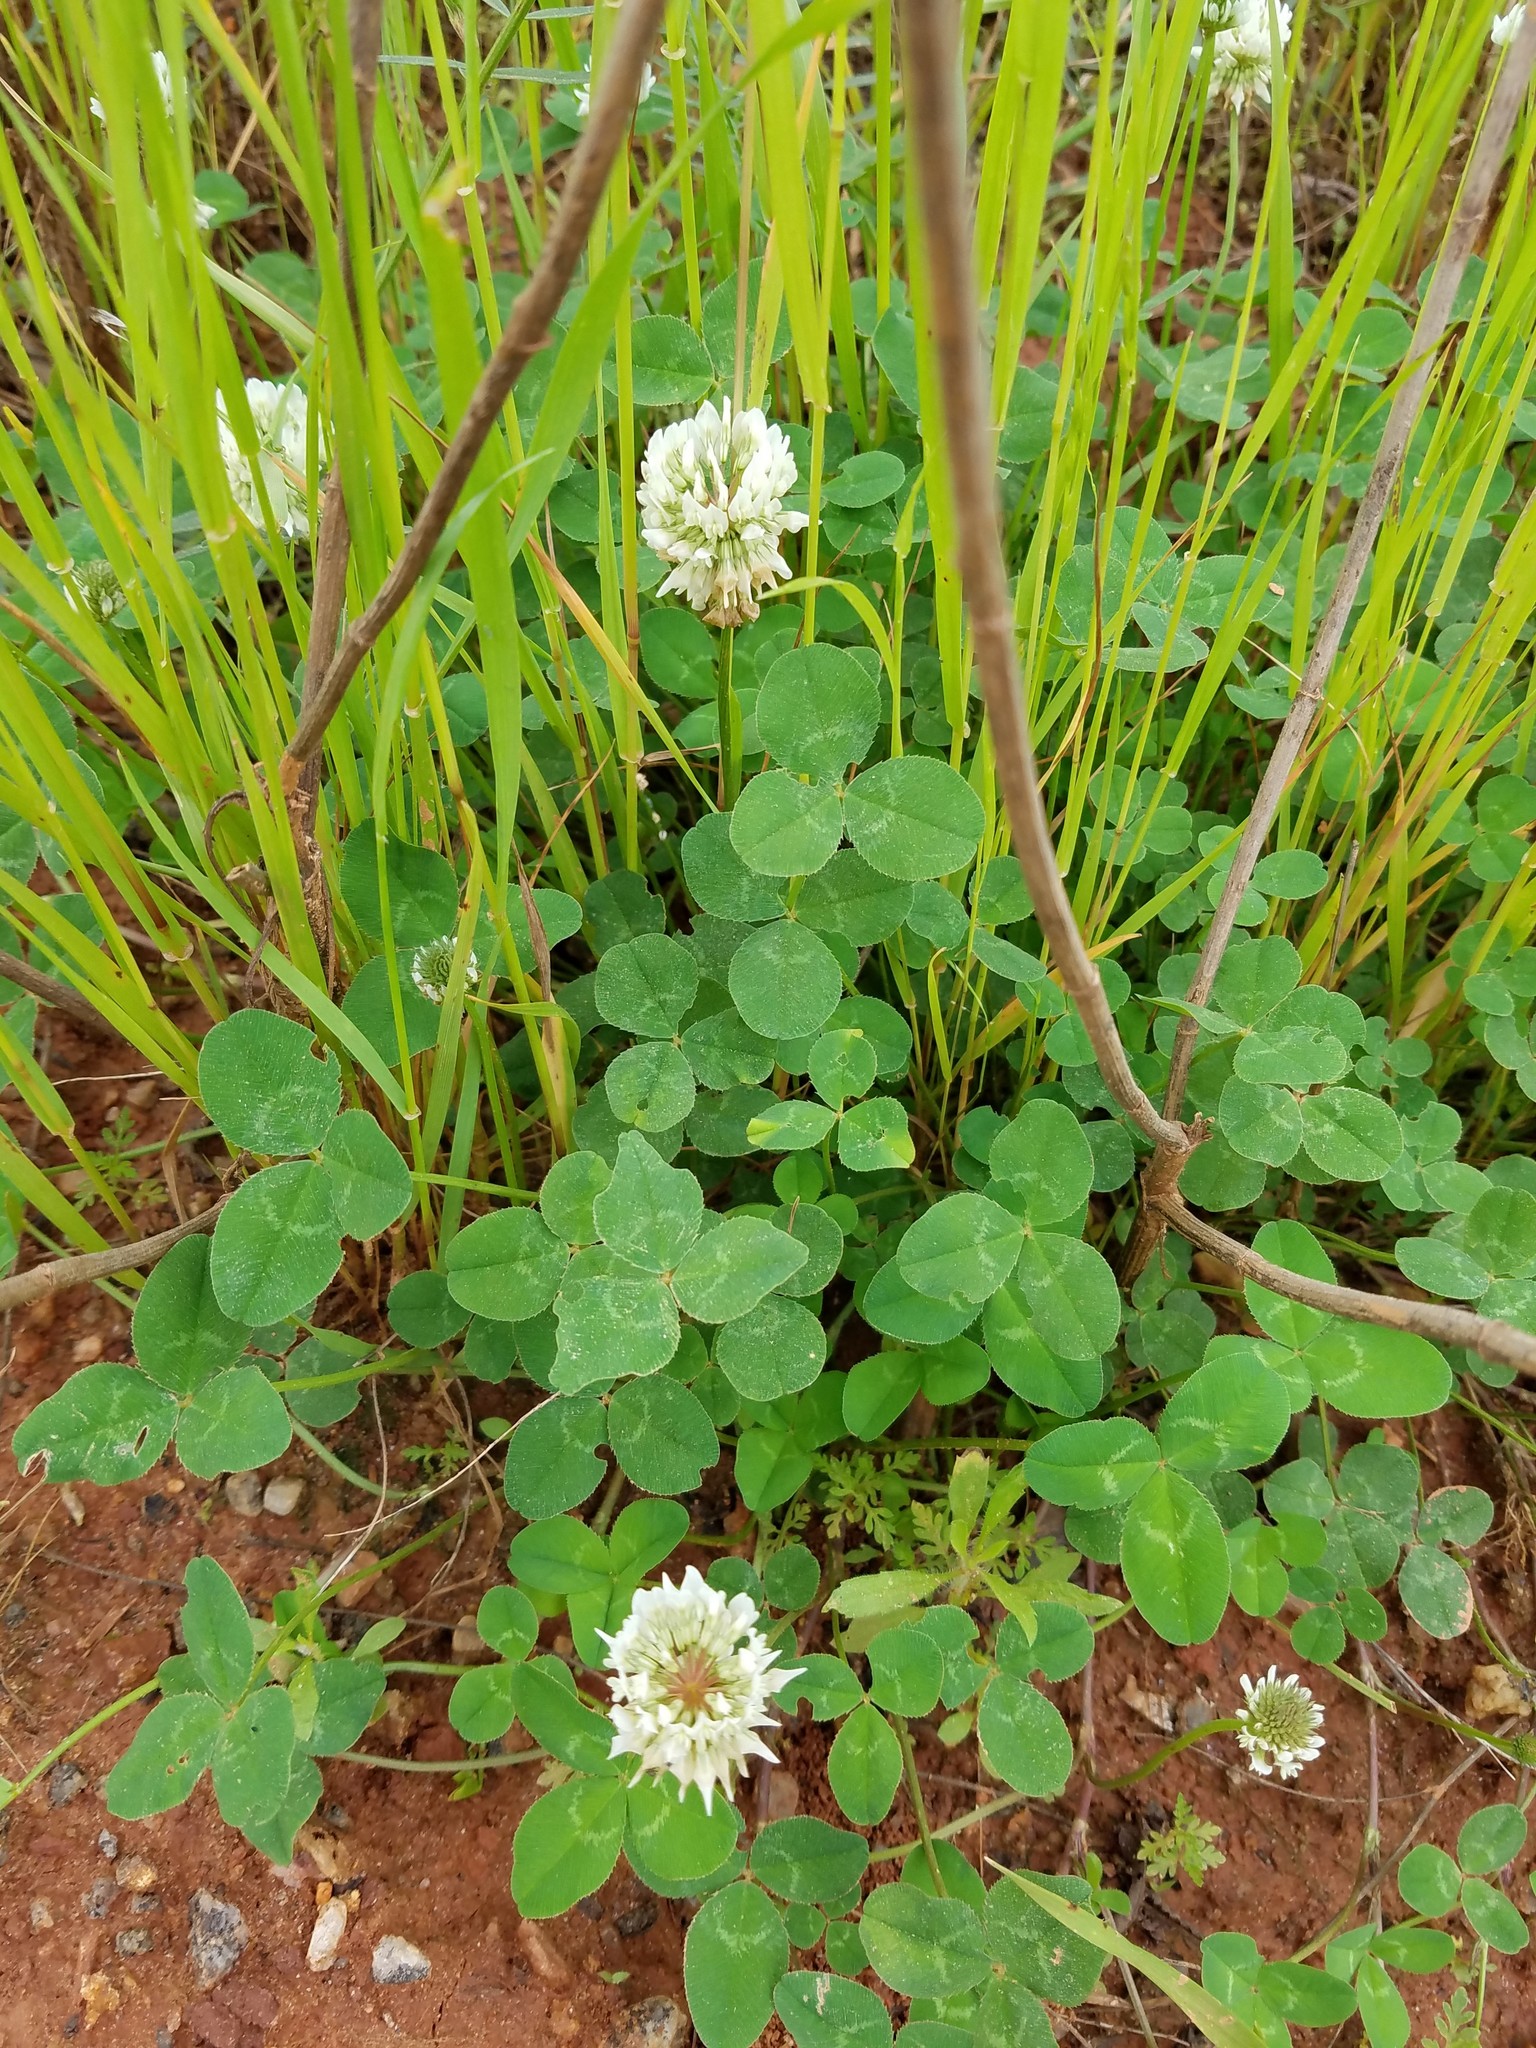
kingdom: Plantae
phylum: Tracheophyta
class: Magnoliopsida
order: Fabales
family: Fabaceae
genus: Trifolium
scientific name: Trifolium repens
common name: White clover
